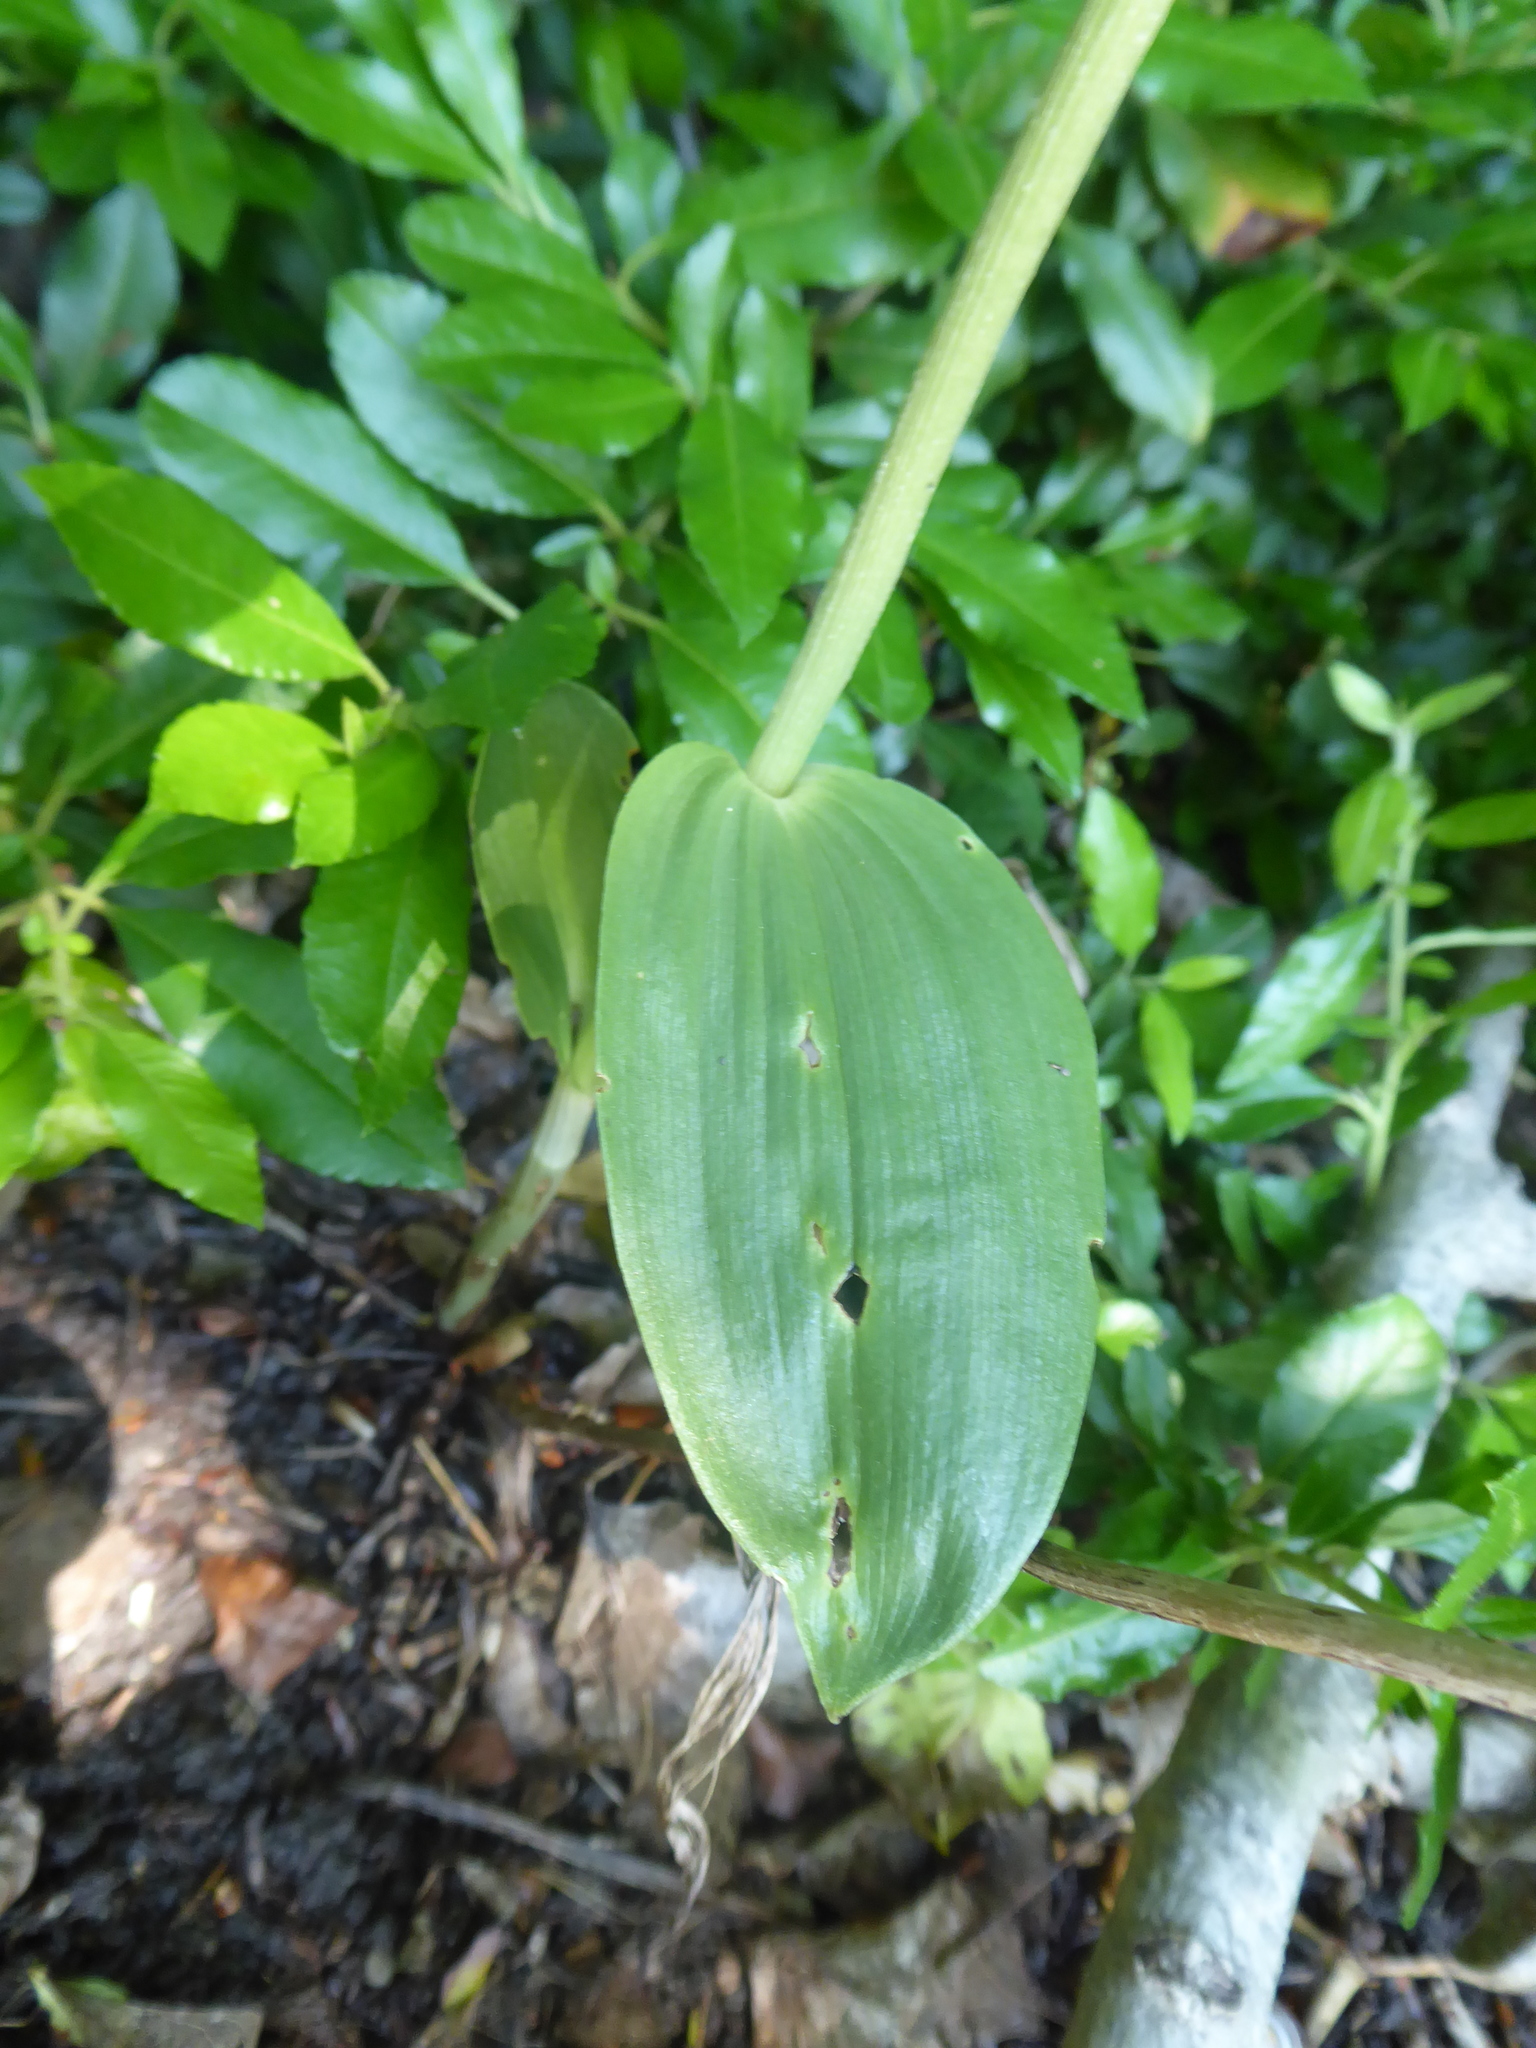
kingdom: Plantae
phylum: Tracheophyta
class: Liliopsida
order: Asparagales
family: Orchidaceae
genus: Cephalanthera
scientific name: Cephalanthera damasonium
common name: White helleborine
